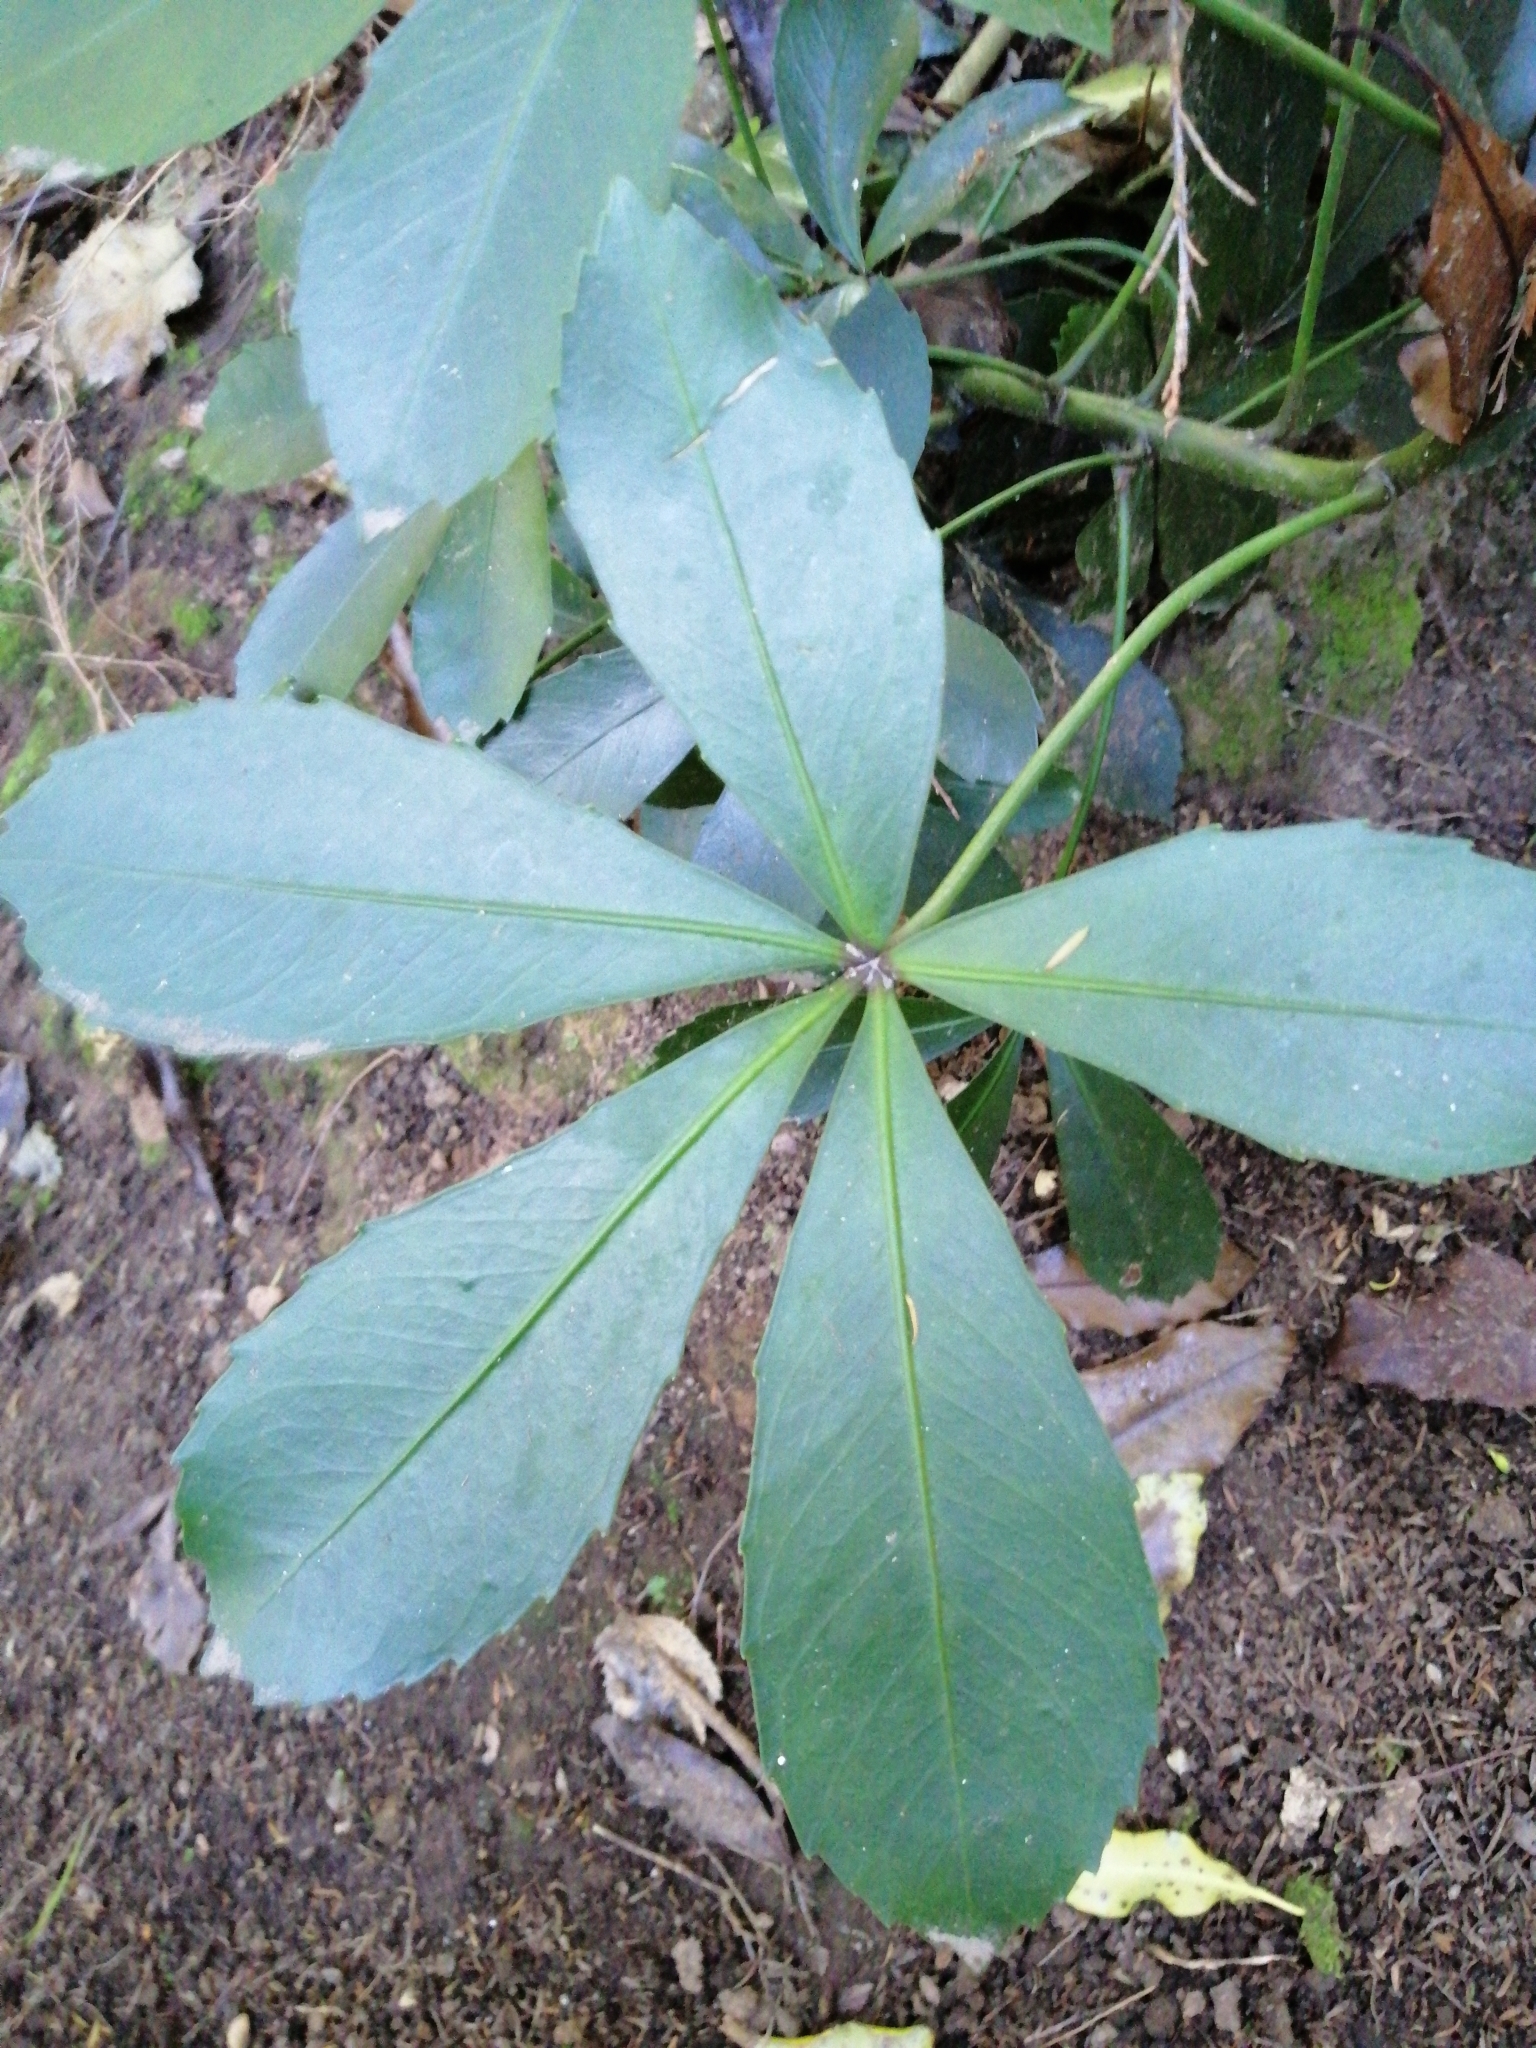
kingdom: Plantae
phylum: Tracheophyta
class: Magnoliopsida
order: Apiales
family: Araliaceae
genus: Pseudopanax
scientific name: Pseudopanax lessonii
